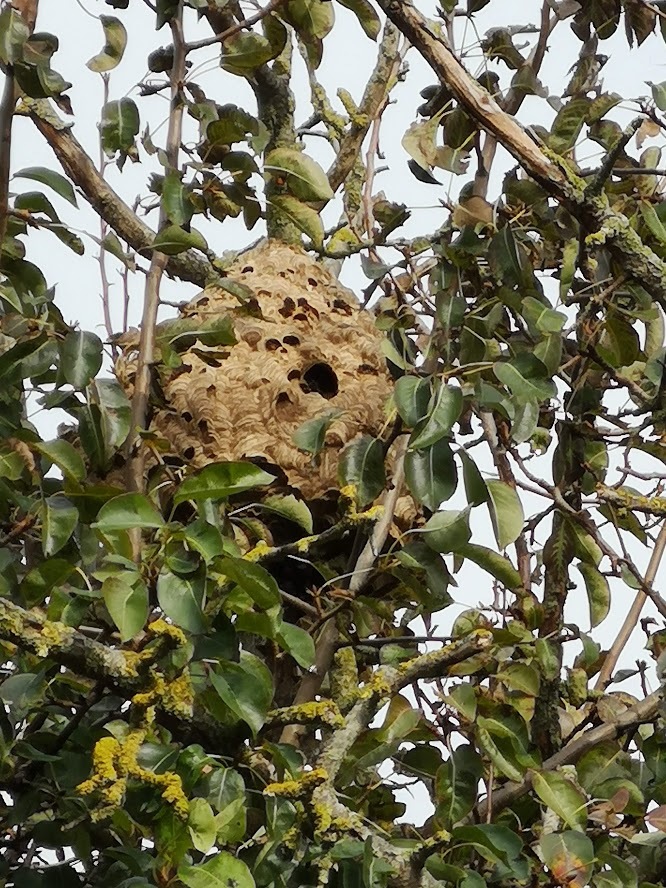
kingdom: Animalia
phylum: Arthropoda
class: Insecta
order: Hymenoptera
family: Vespidae
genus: Vespa
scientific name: Vespa velutina
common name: Asian hornet
